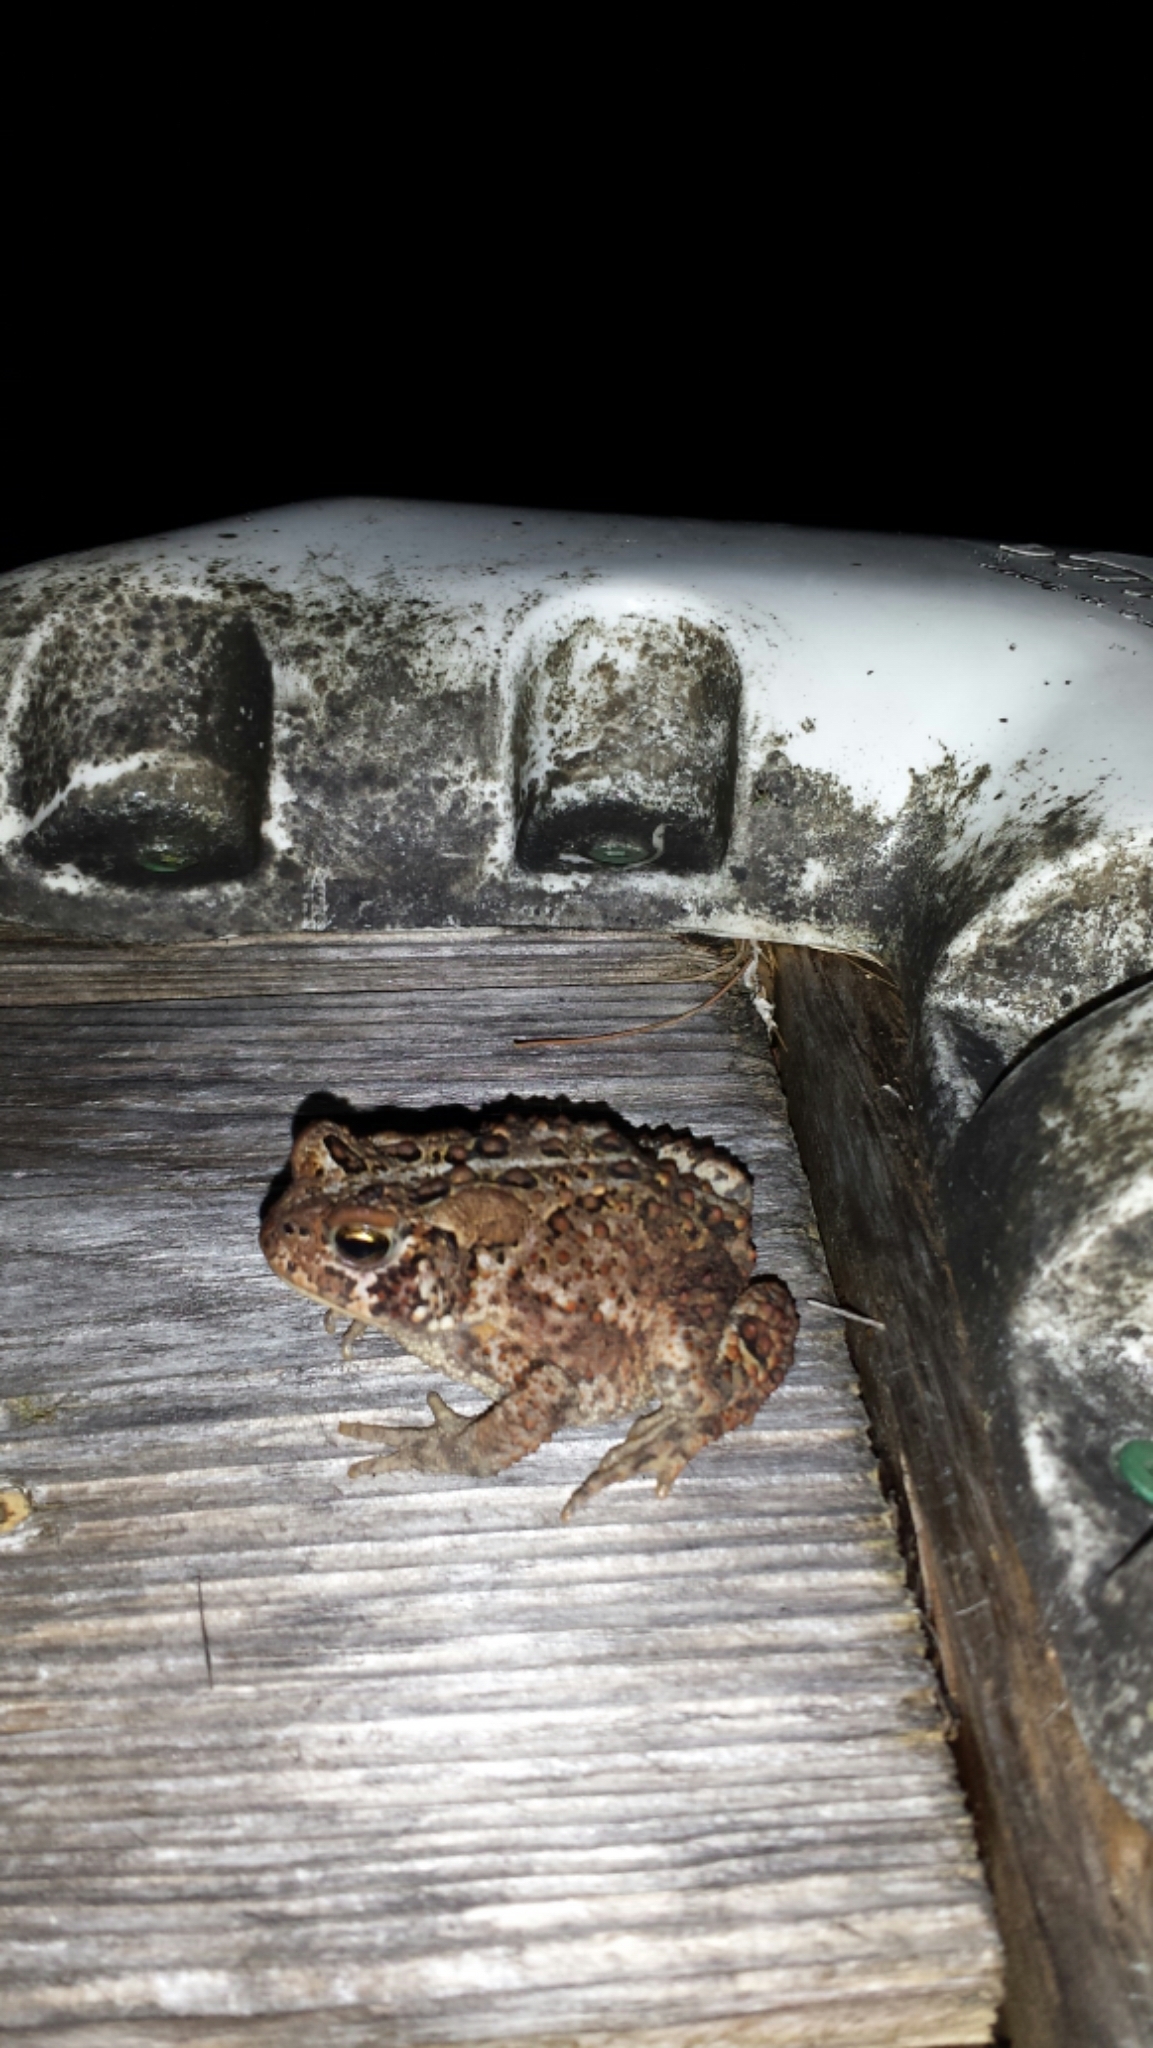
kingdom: Animalia
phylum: Chordata
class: Amphibia
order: Anura
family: Bufonidae
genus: Anaxyrus
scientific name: Anaxyrus americanus
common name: American toad
